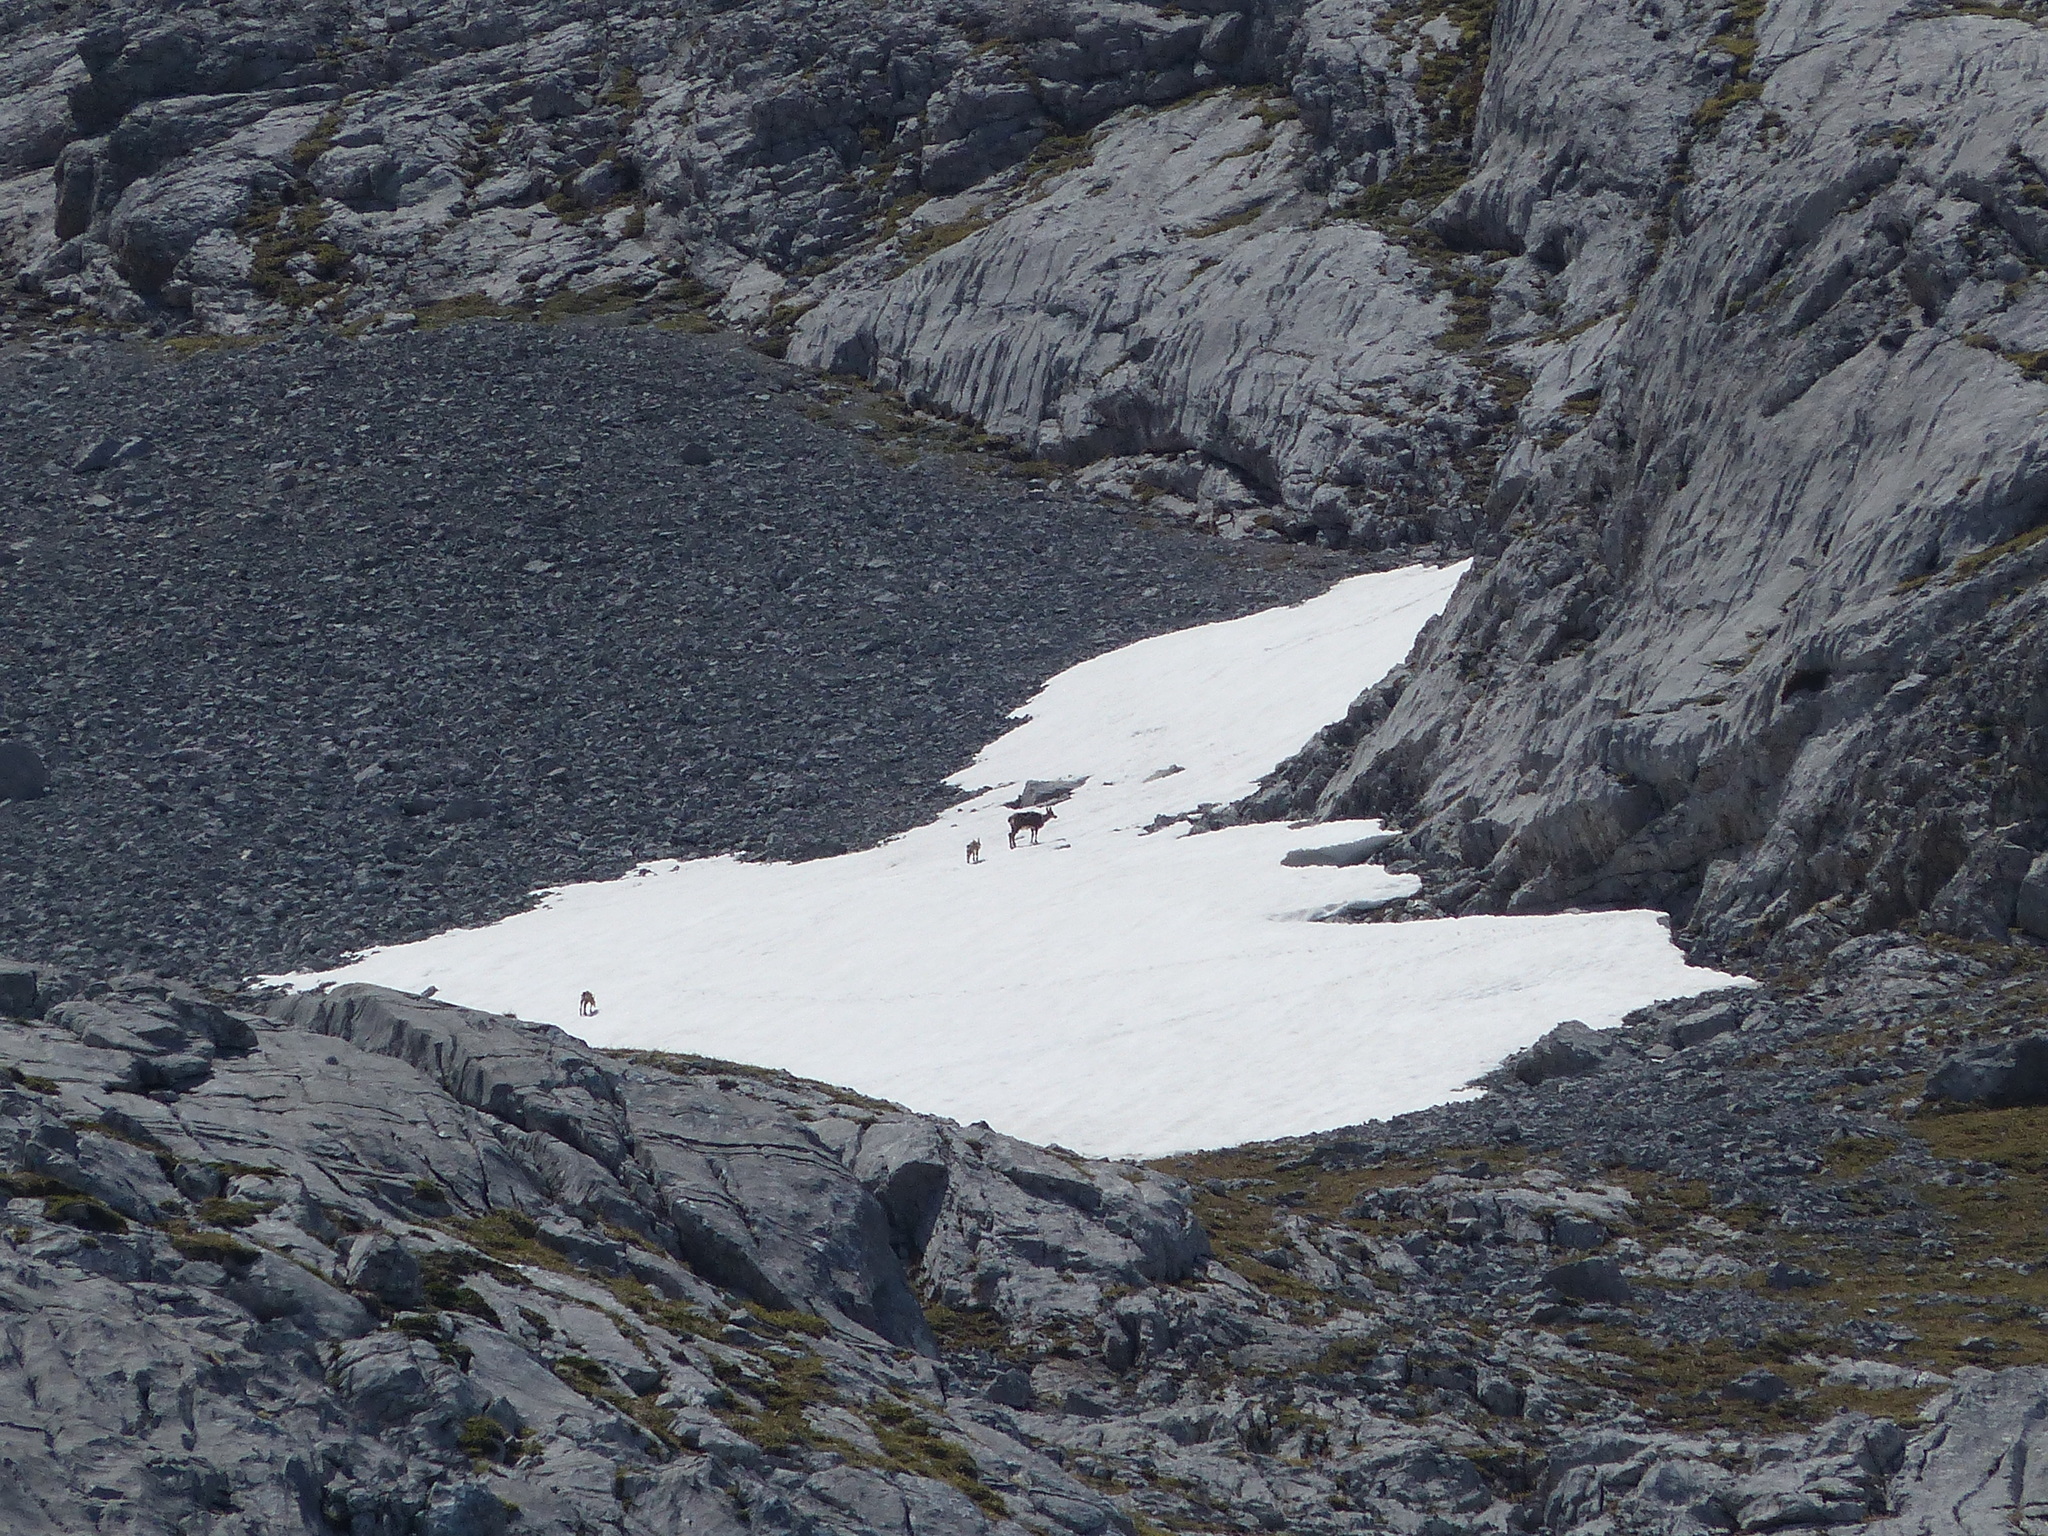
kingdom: Animalia
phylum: Chordata
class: Mammalia
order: Artiodactyla
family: Bovidae
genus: Rupicapra
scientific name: Rupicapra pyrenaica
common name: Pyrenean chamois
